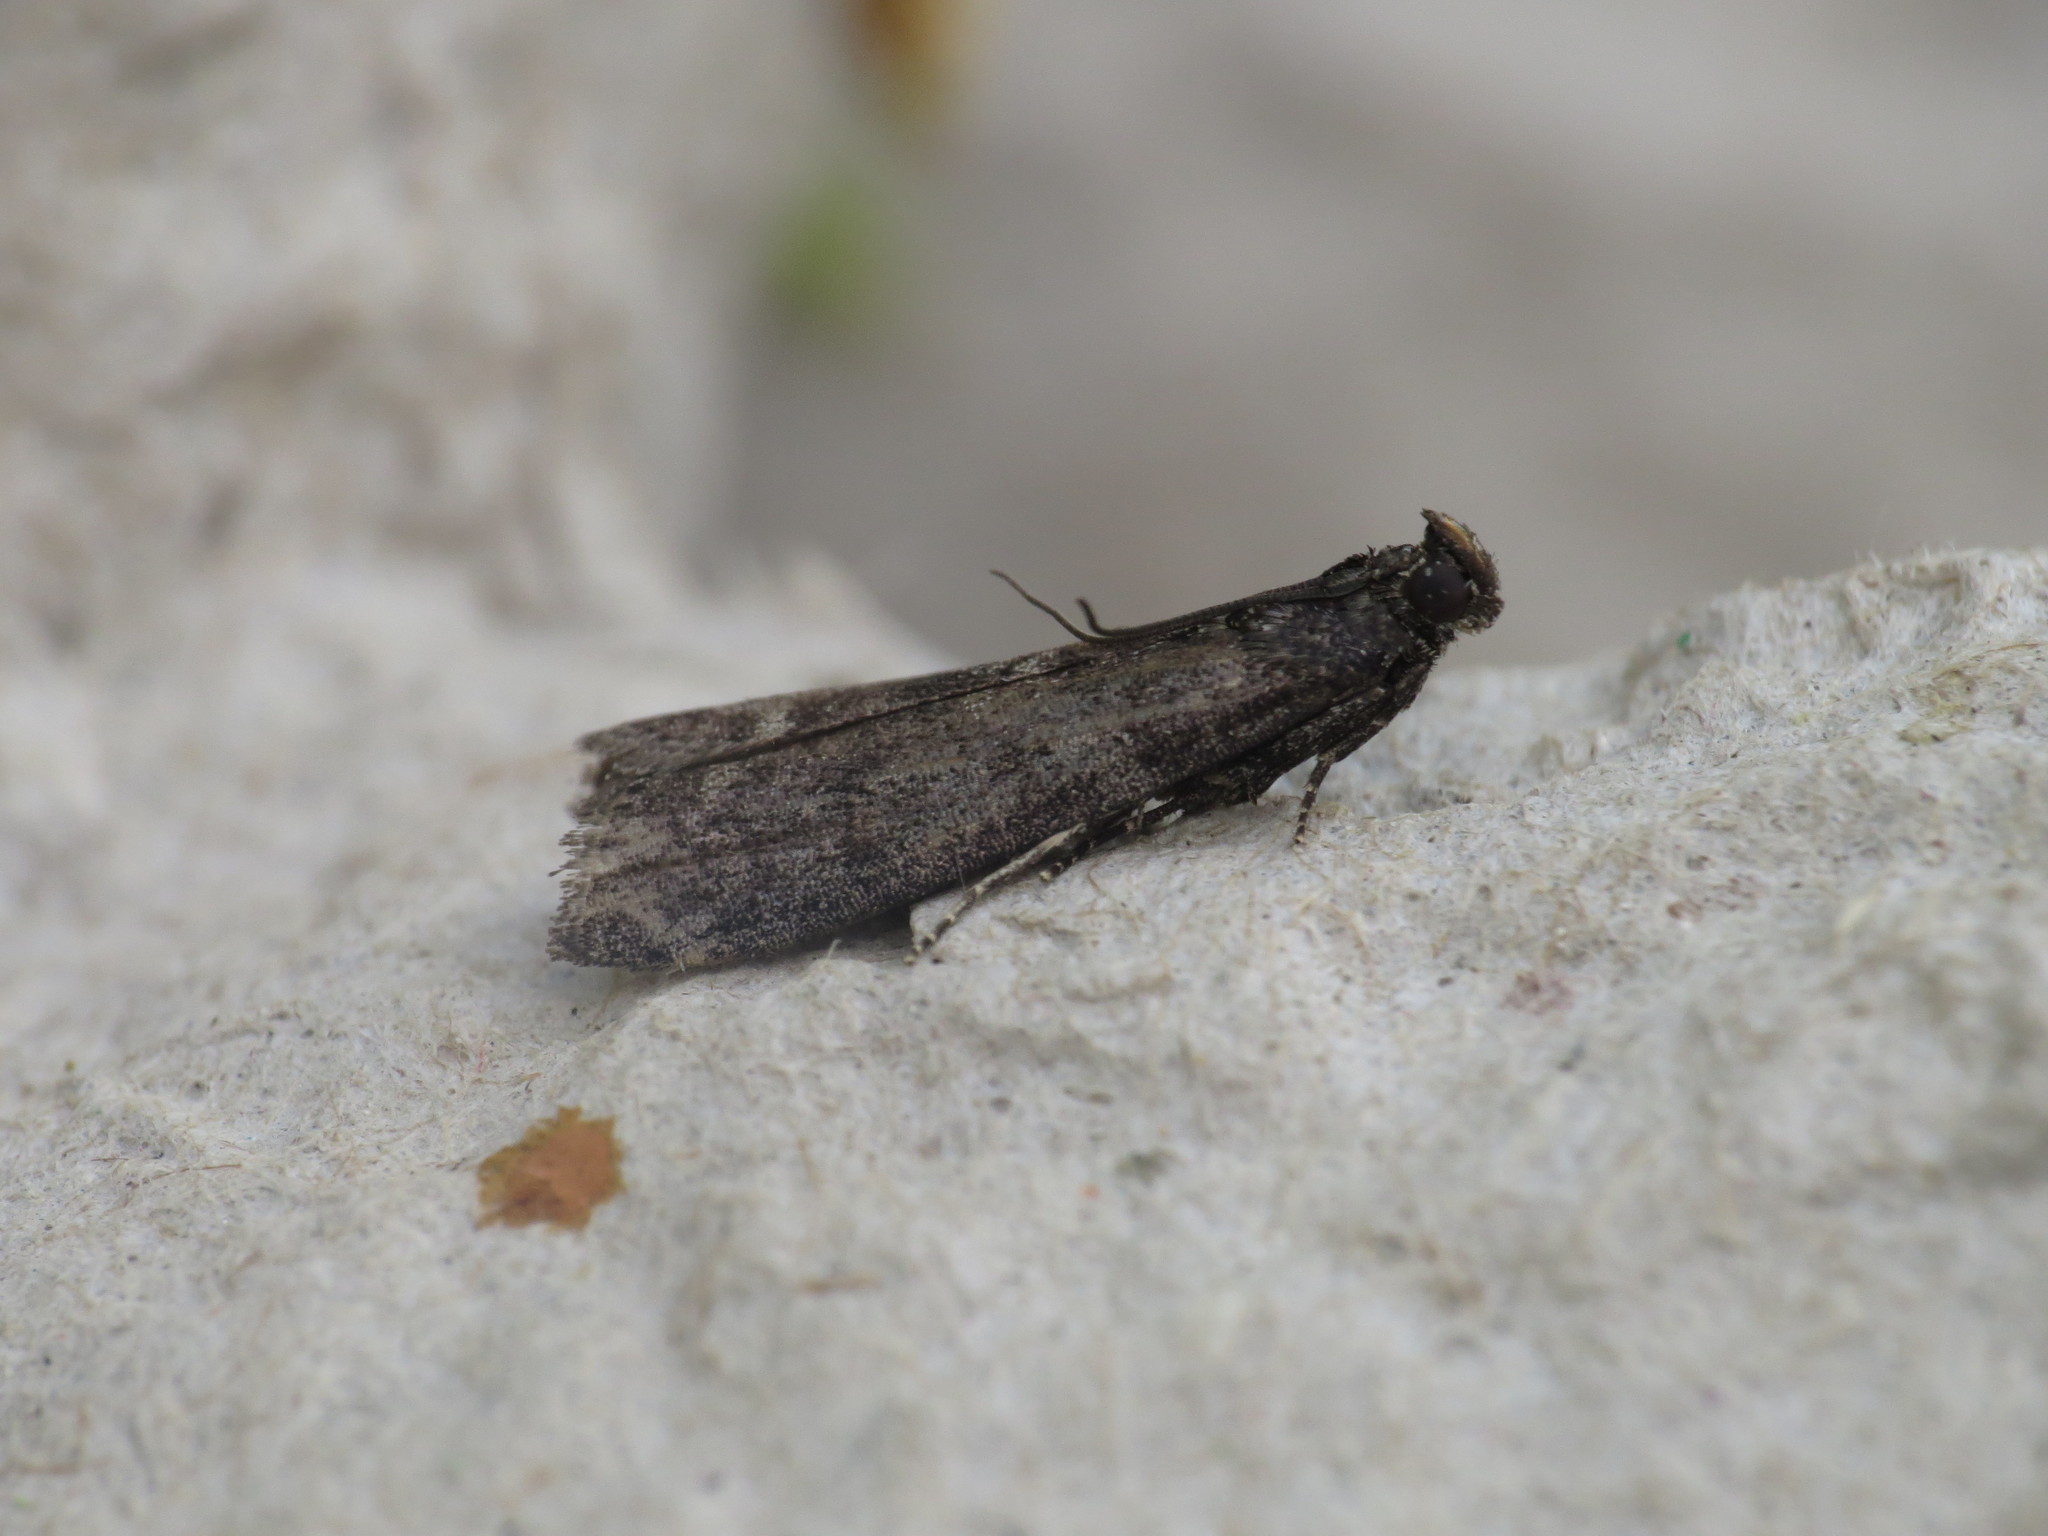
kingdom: Animalia
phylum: Arthropoda
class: Insecta
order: Lepidoptera
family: Pyralidae
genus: Pyla
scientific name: Pyla fusca
